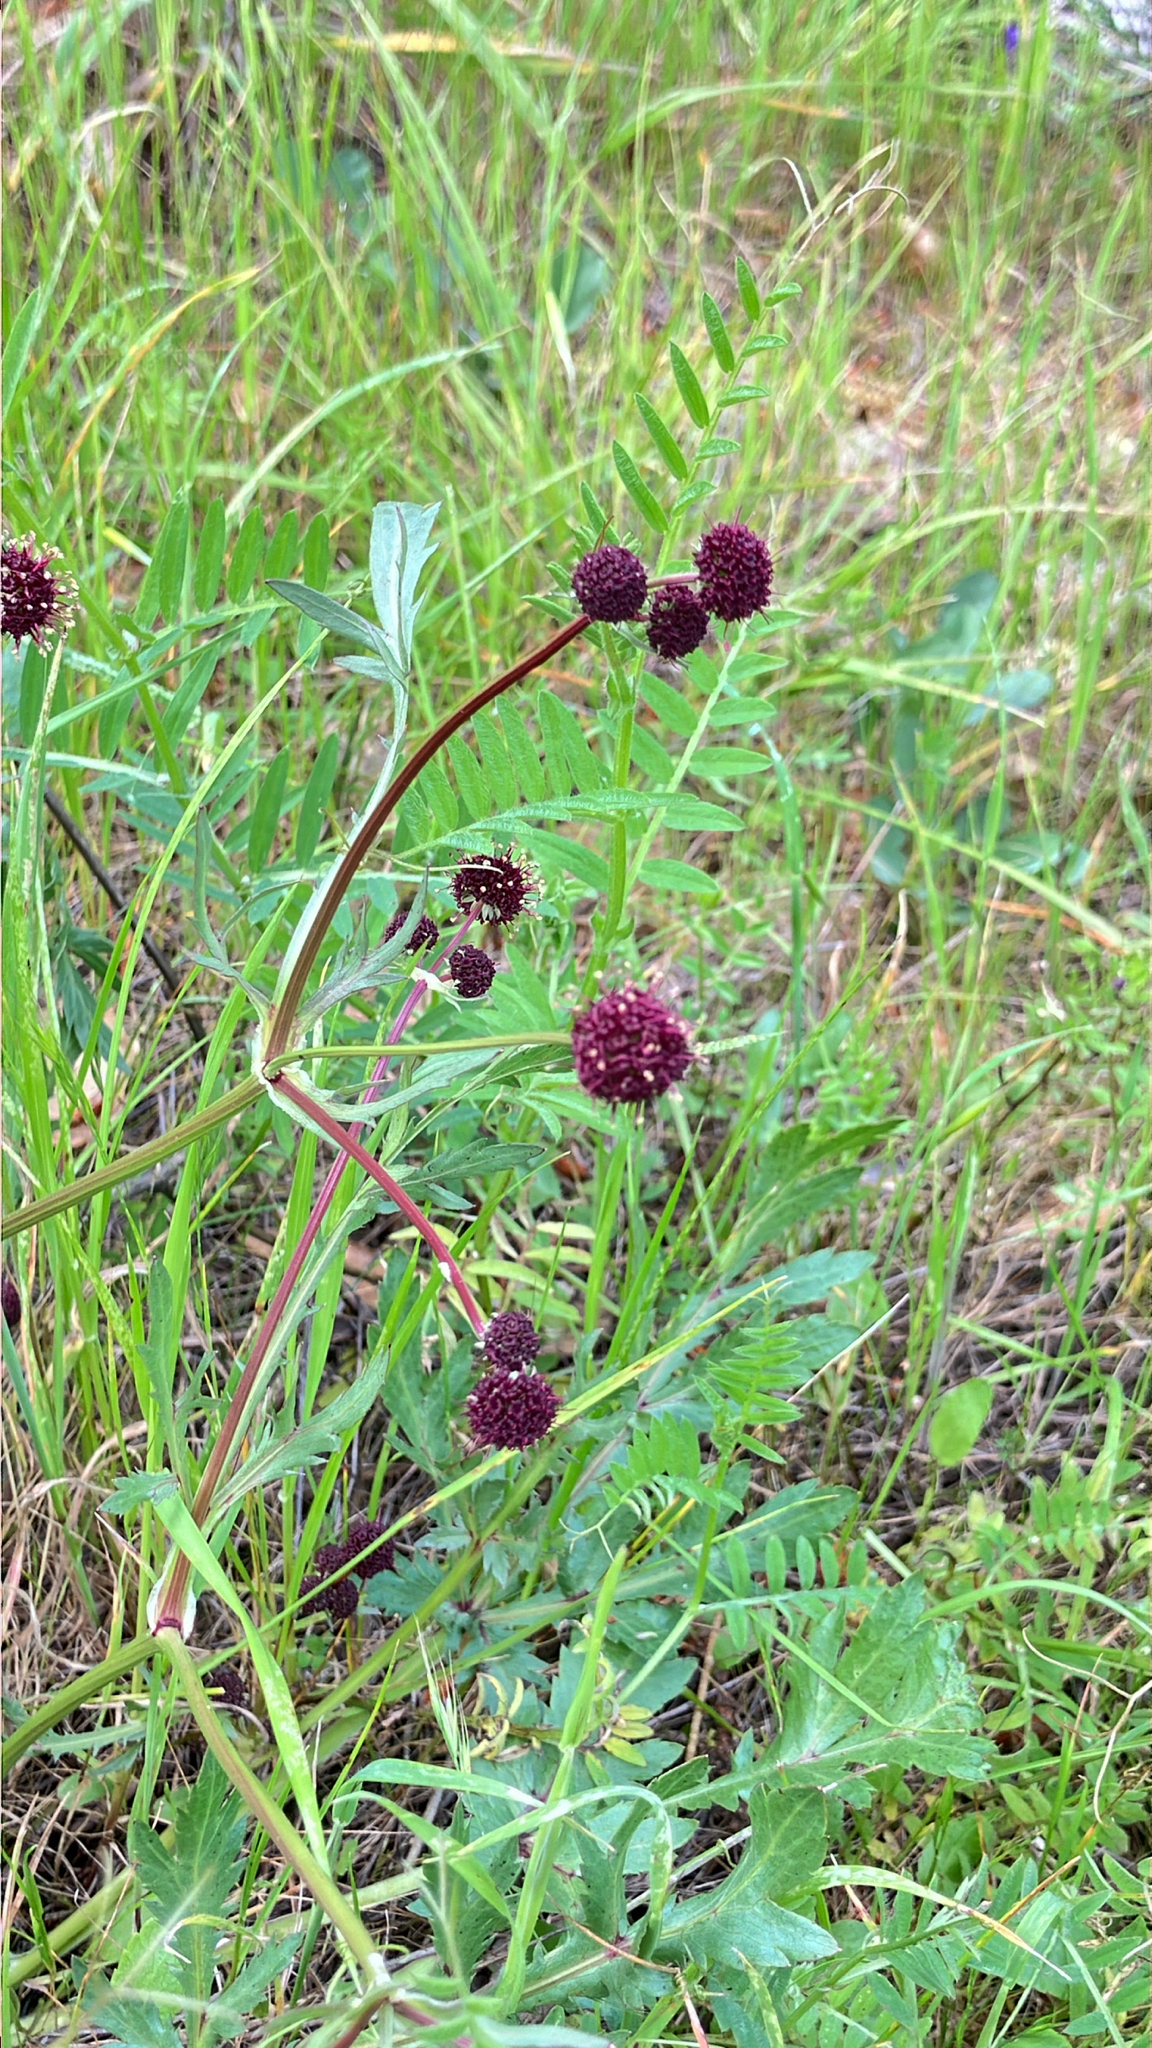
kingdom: Plantae
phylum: Tracheophyta
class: Magnoliopsida
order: Apiales
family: Apiaceae
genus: Sanicula
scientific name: Sanicula bipinnatifida
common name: Shoe-buttons
